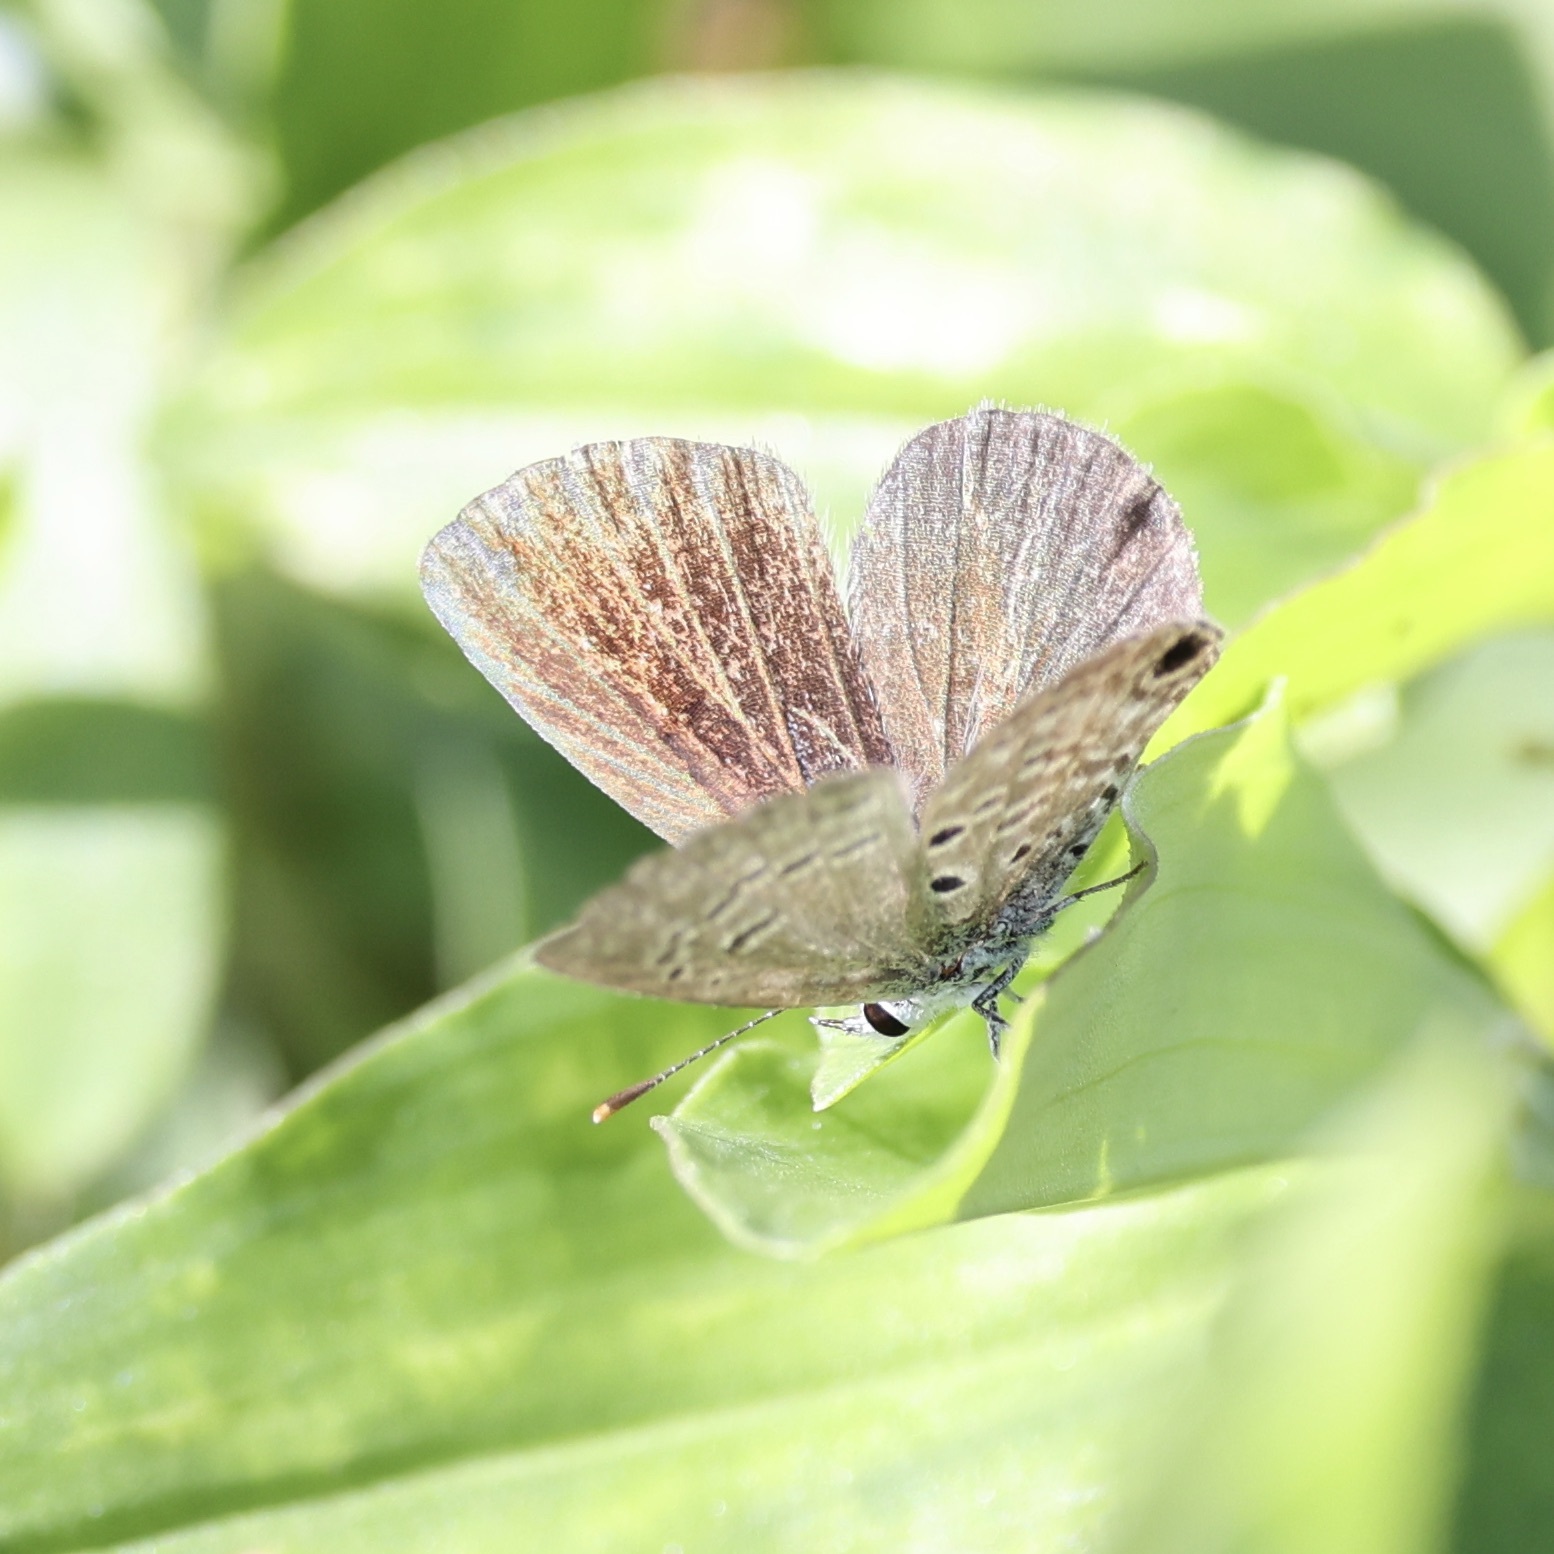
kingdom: Animalia
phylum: Arthropoda
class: Insecta
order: Lepidoptera
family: Lycaenidae
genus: Hemiargus
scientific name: Hemiargus ceraunus
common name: Ceraunus blue
